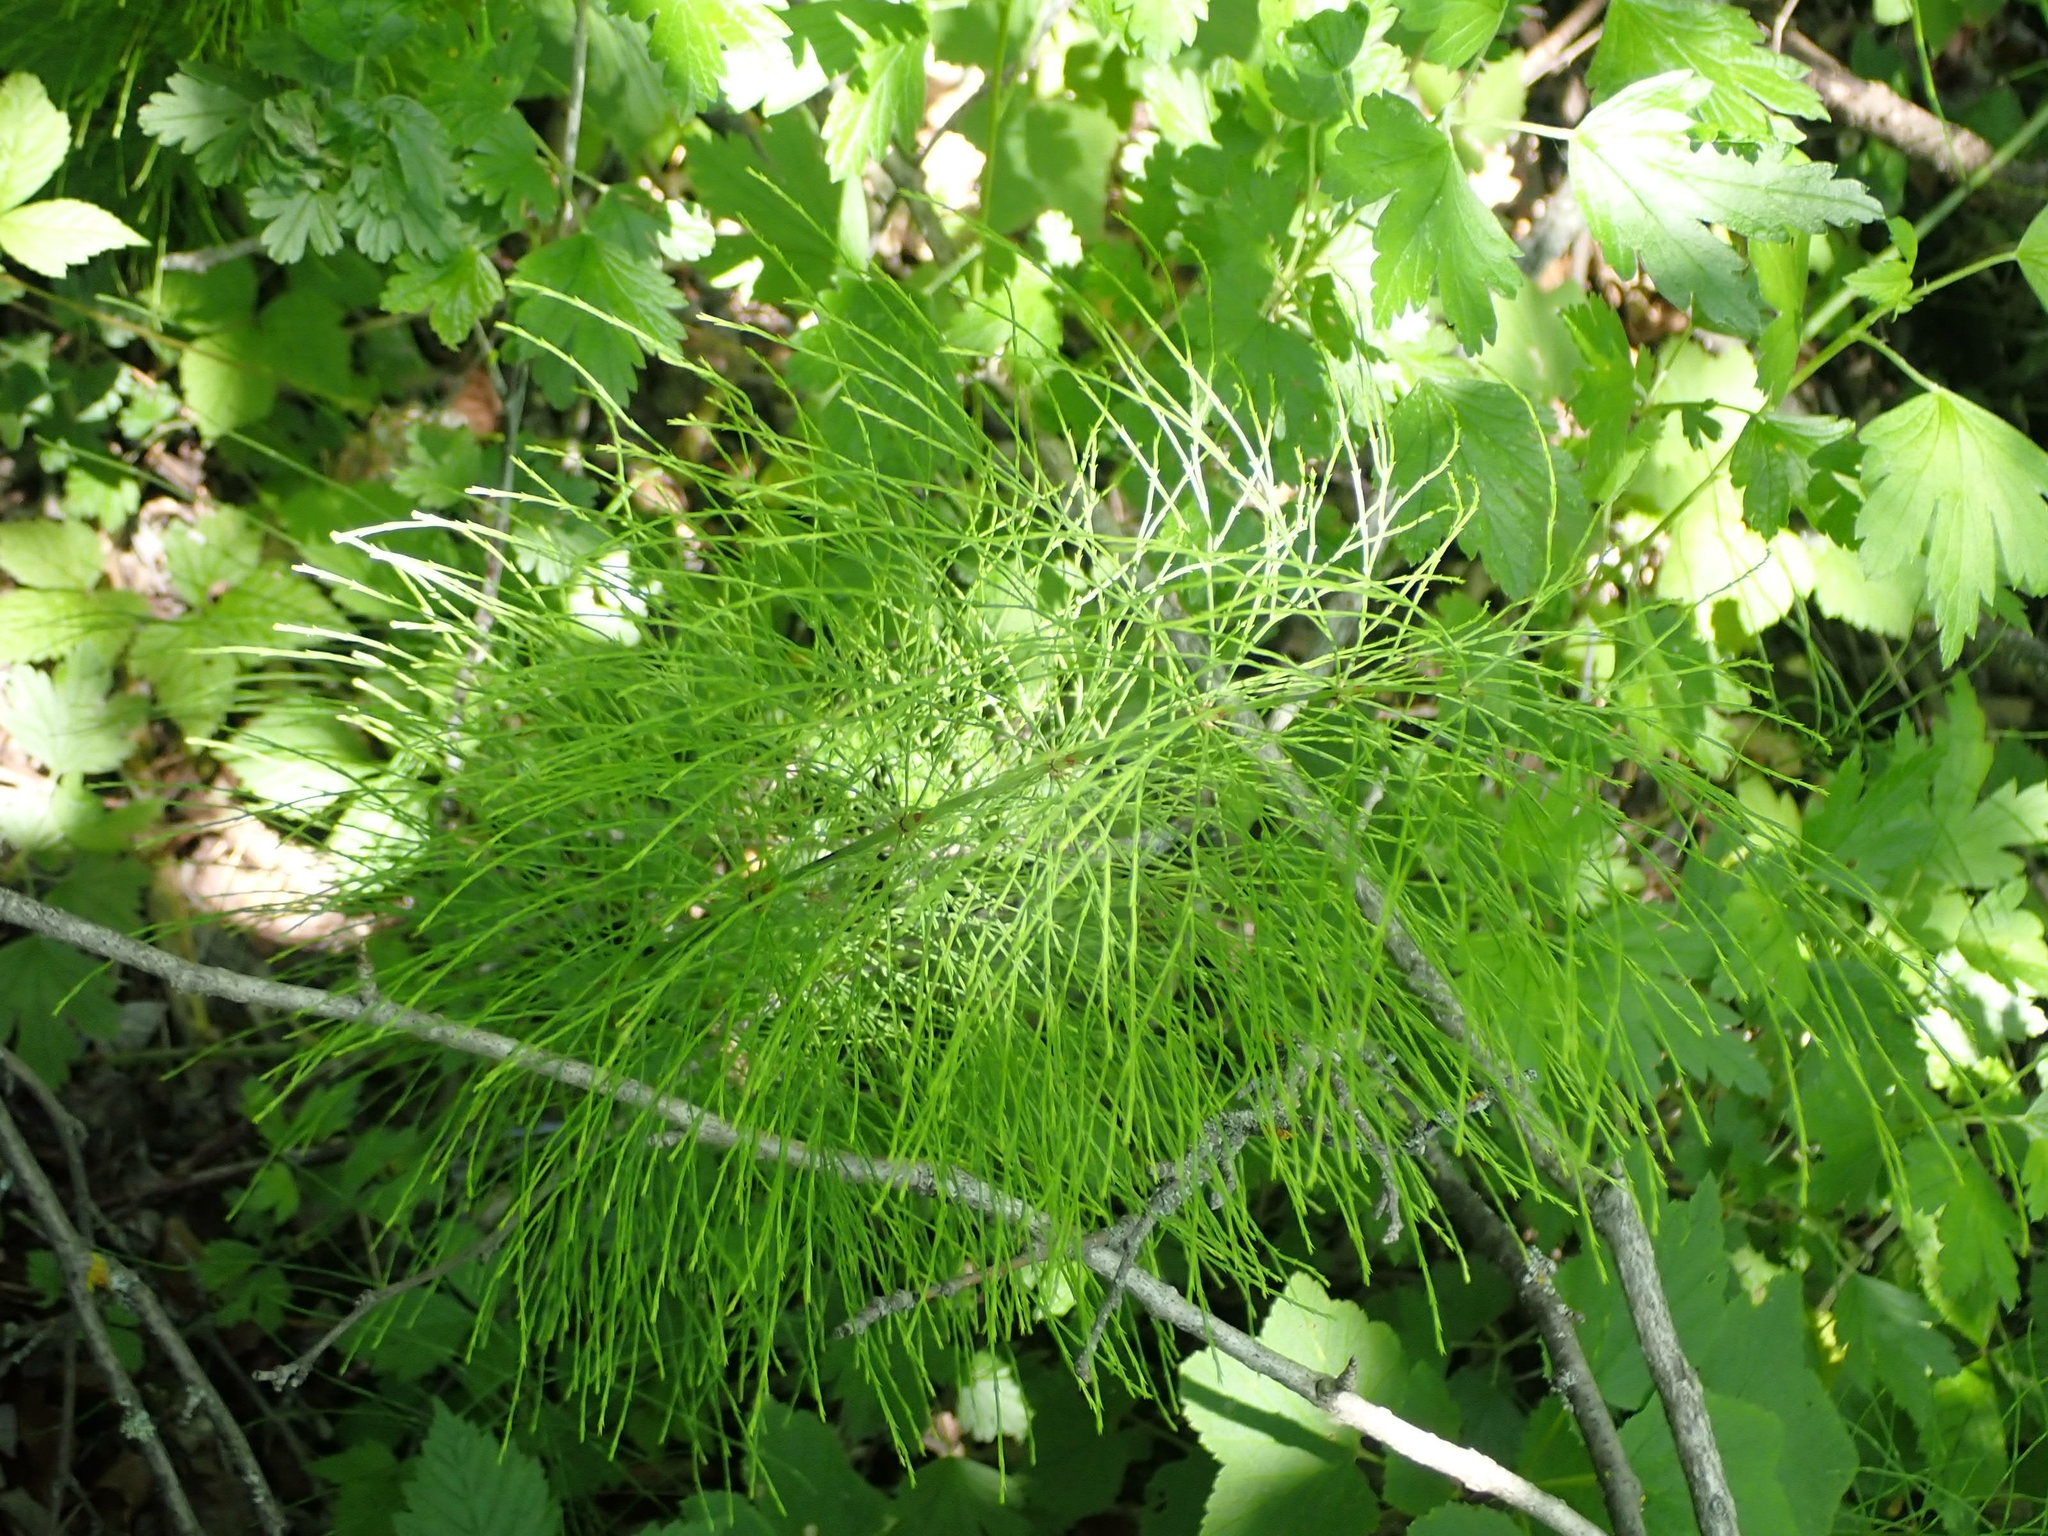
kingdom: Plantae
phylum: Tracheophyta
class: Polypodiopsida
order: Equisetales
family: Equisetaceae
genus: Equisetum
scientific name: Equisetum sylvaticum
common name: Wood horsetail
